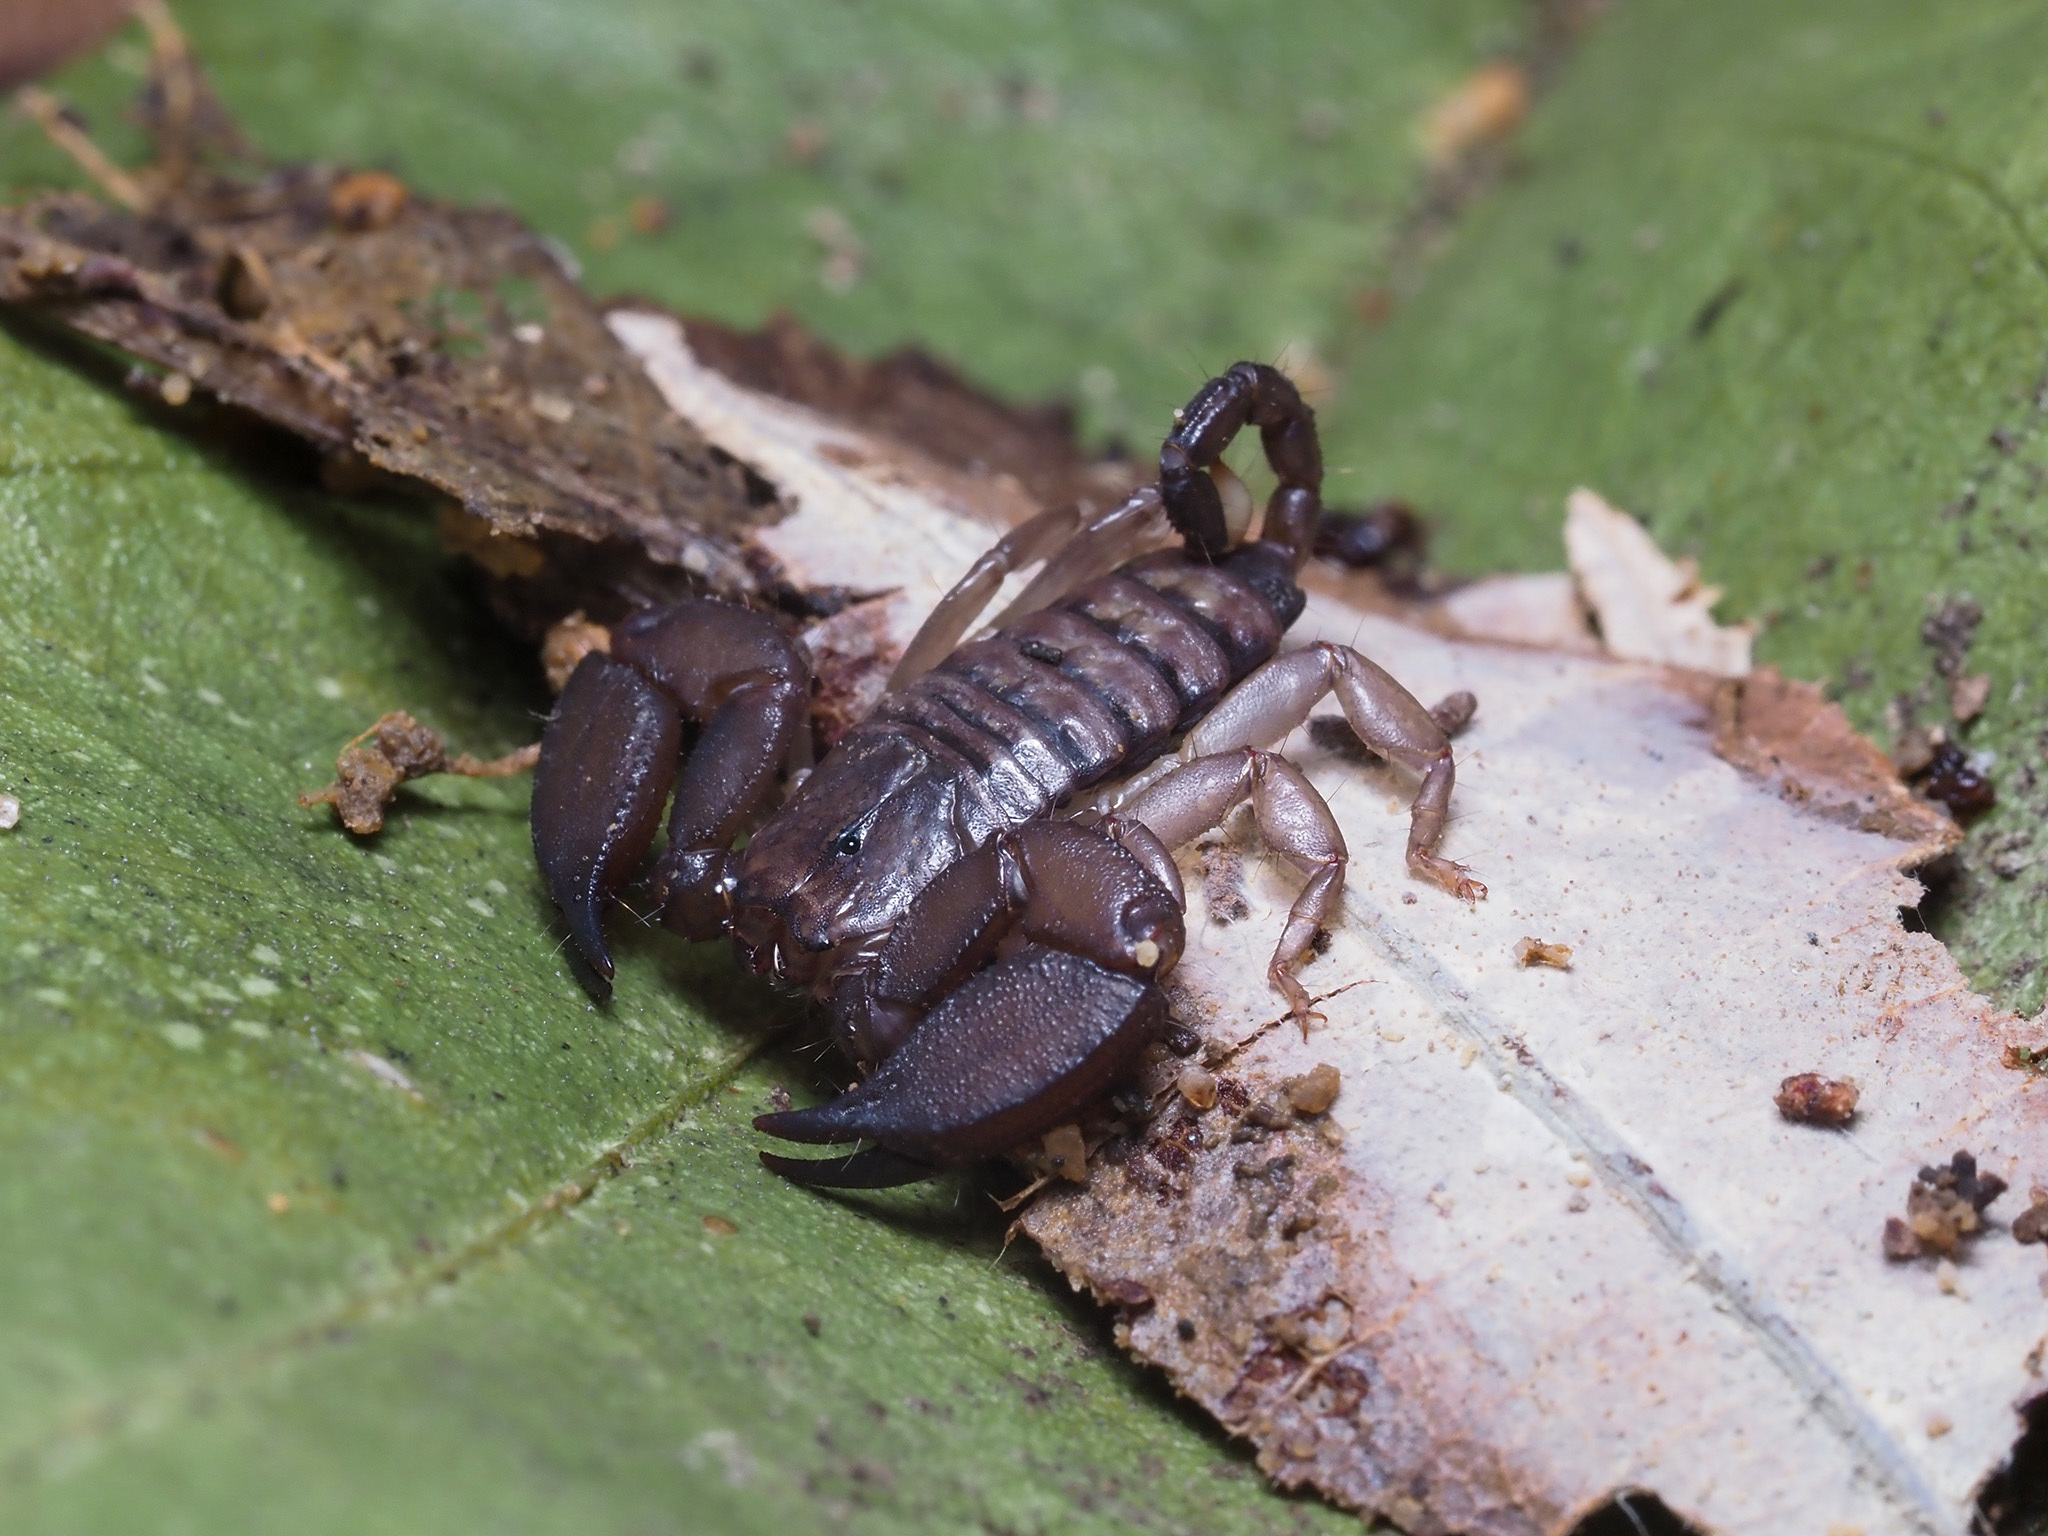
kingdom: Animalia
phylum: Arthropoda
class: Arachnida
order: Scorpiones
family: Hormuridae
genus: Liocheles
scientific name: Liocheles australasiae
